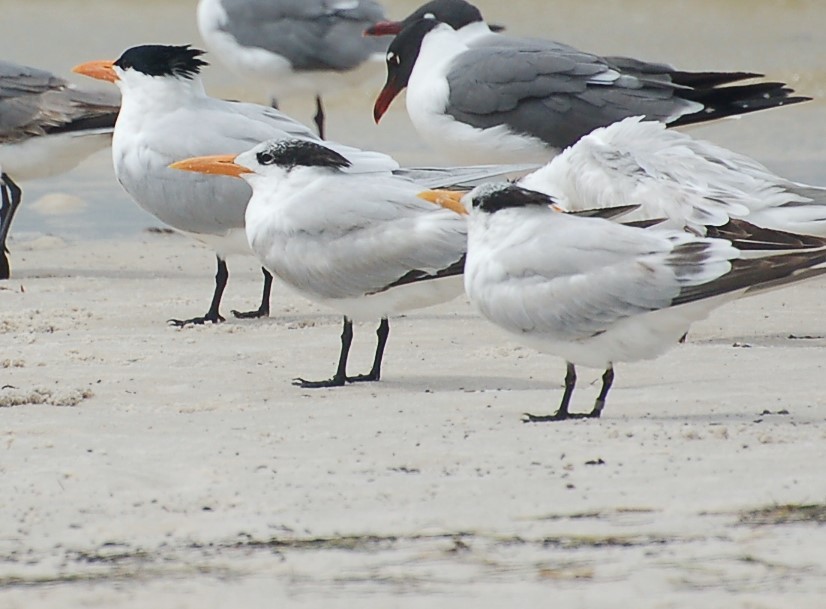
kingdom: Animalia
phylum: Chordata
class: Aves
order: Charadriiformes
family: Laridae
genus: Thalasseus
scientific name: Thalasseus maximus
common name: Royal tern
